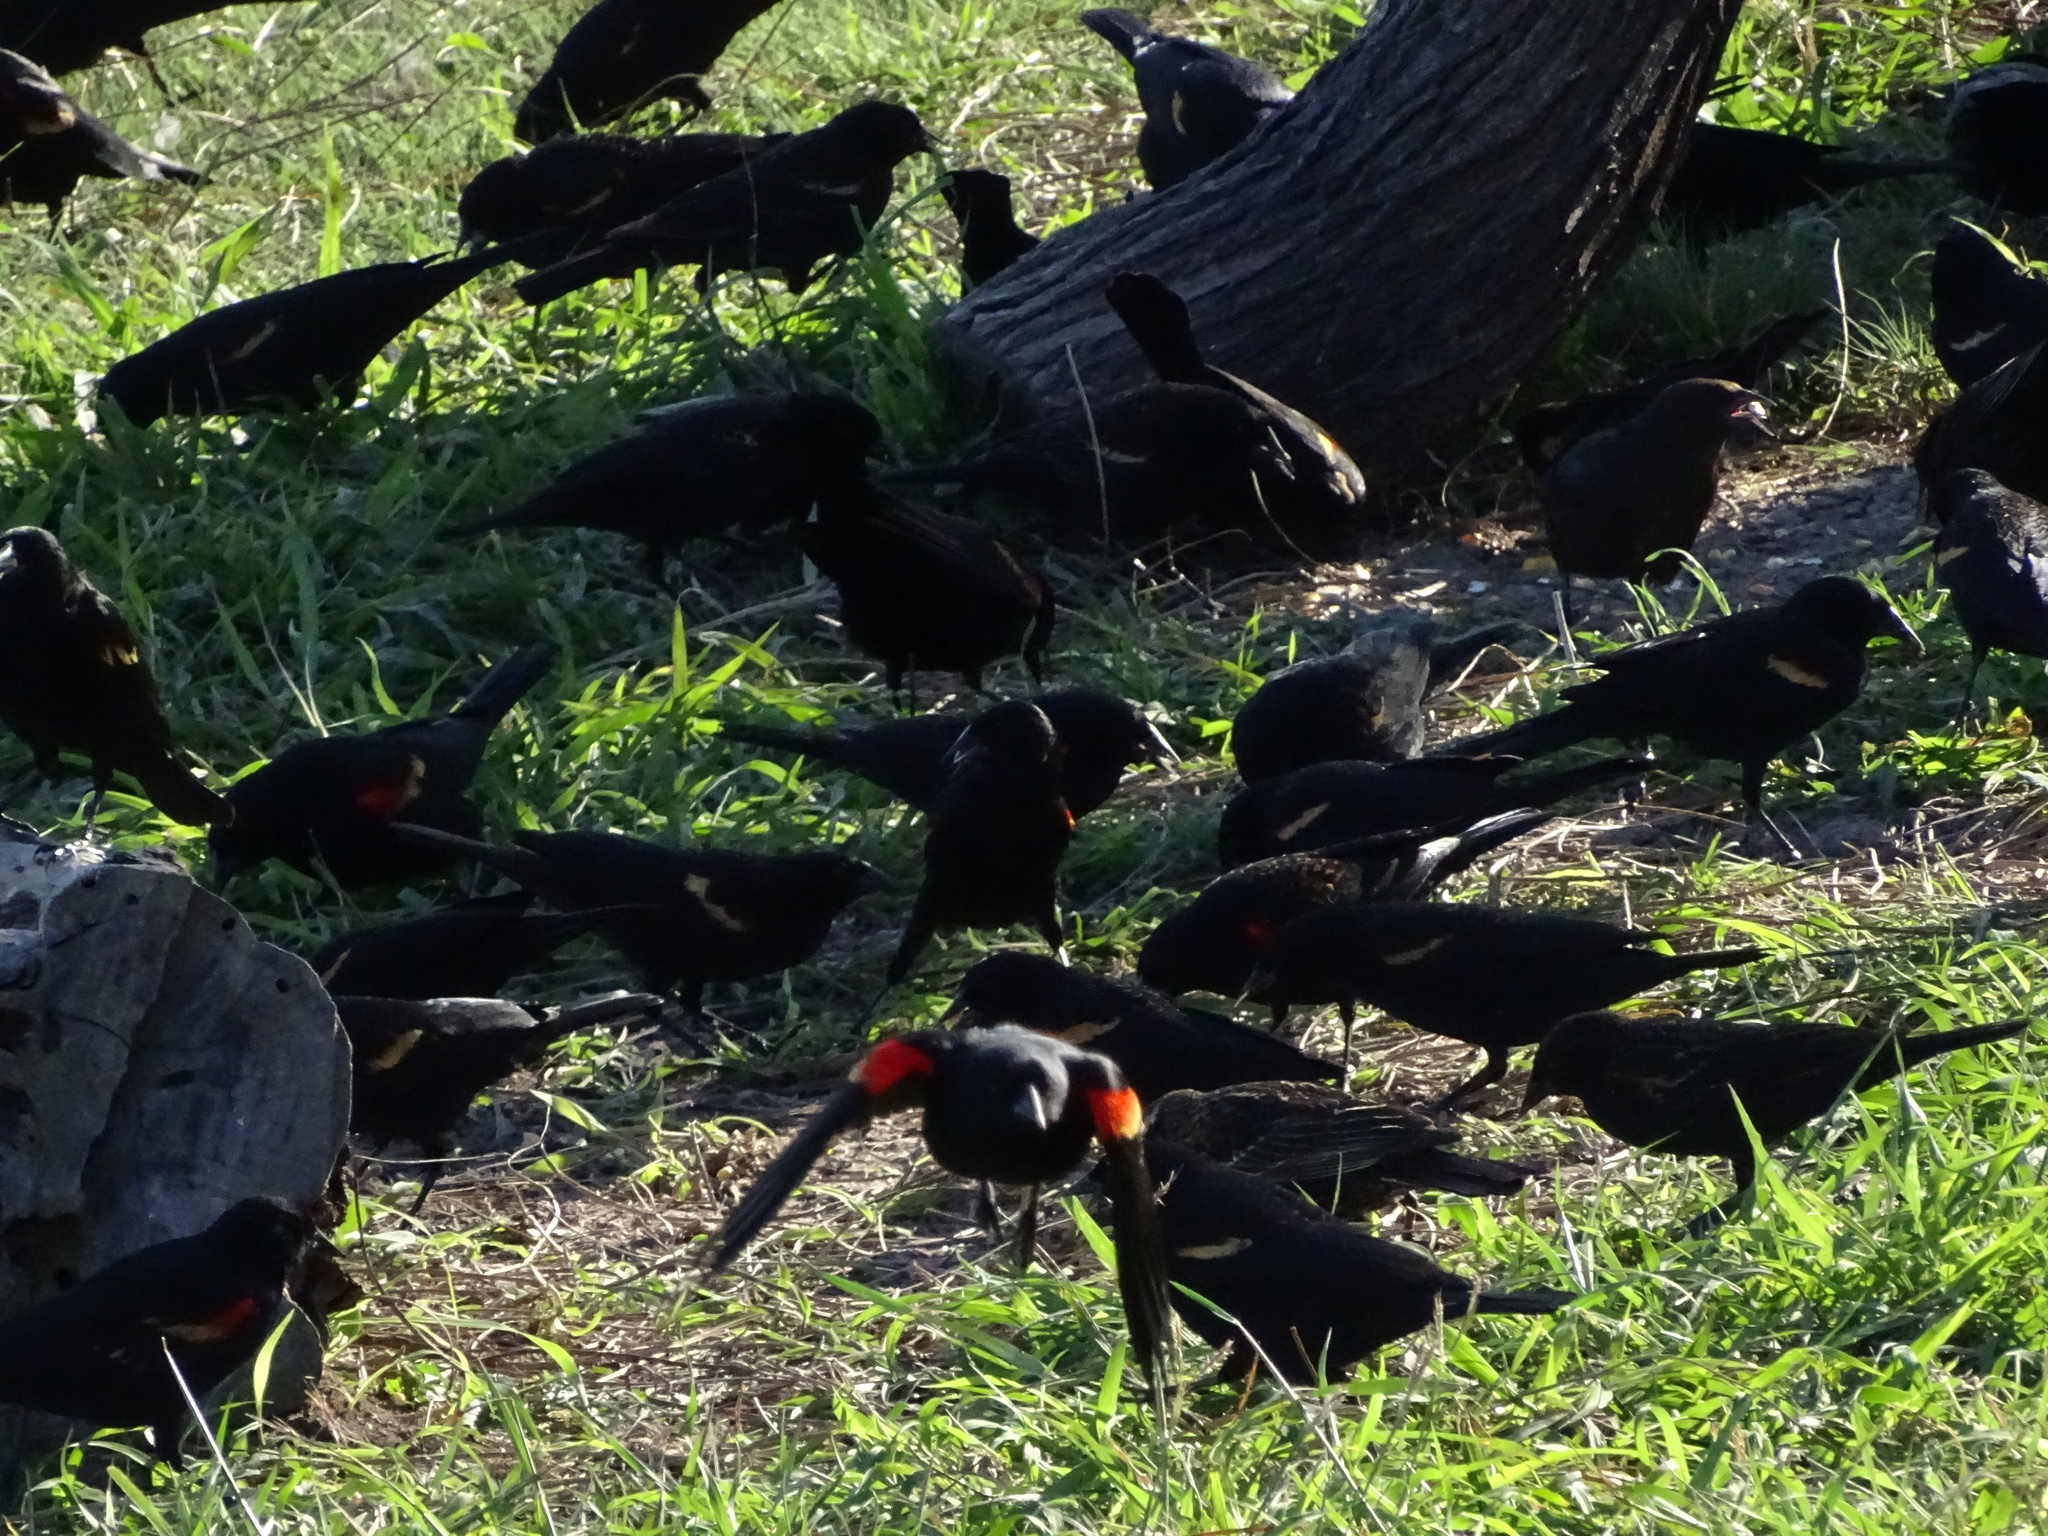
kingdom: Animalia
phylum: Chordata
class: Aves
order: Passeriformes
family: Icteridae
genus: Agelaius
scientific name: Agelaius phoeniceus
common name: Red-winged blackbird
